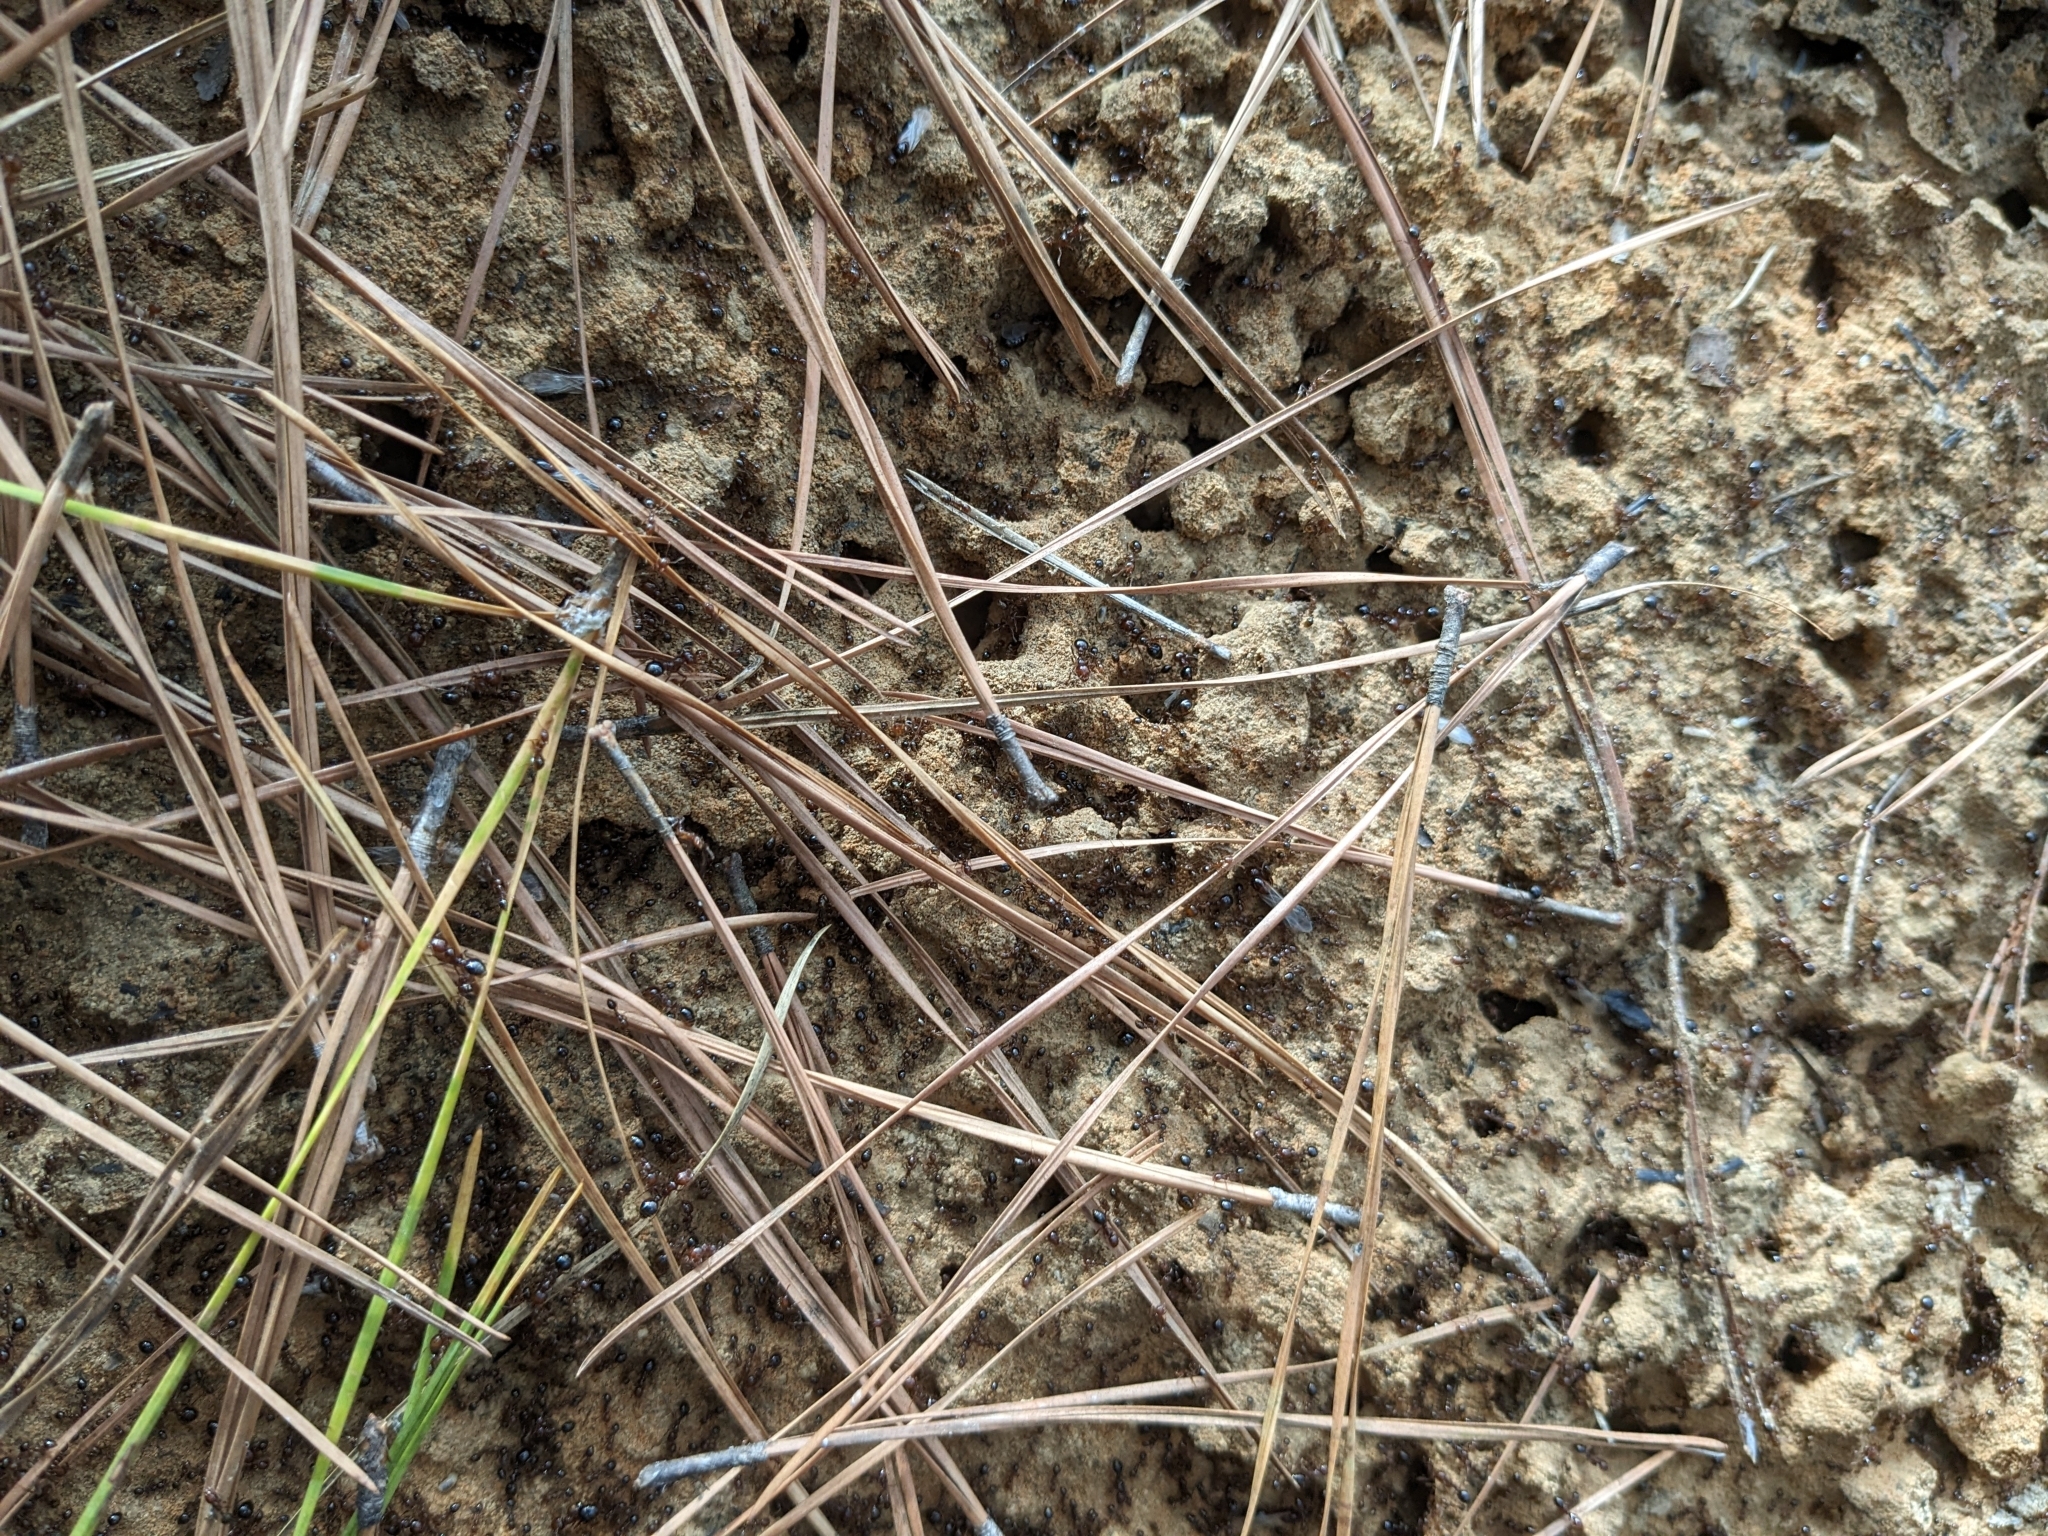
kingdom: Animalia
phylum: Arthropoda
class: Insecta
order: Hymenoptera
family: Formicidae
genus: Solenopsis
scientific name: Solenopsis invicta
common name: Red imported fire ant
